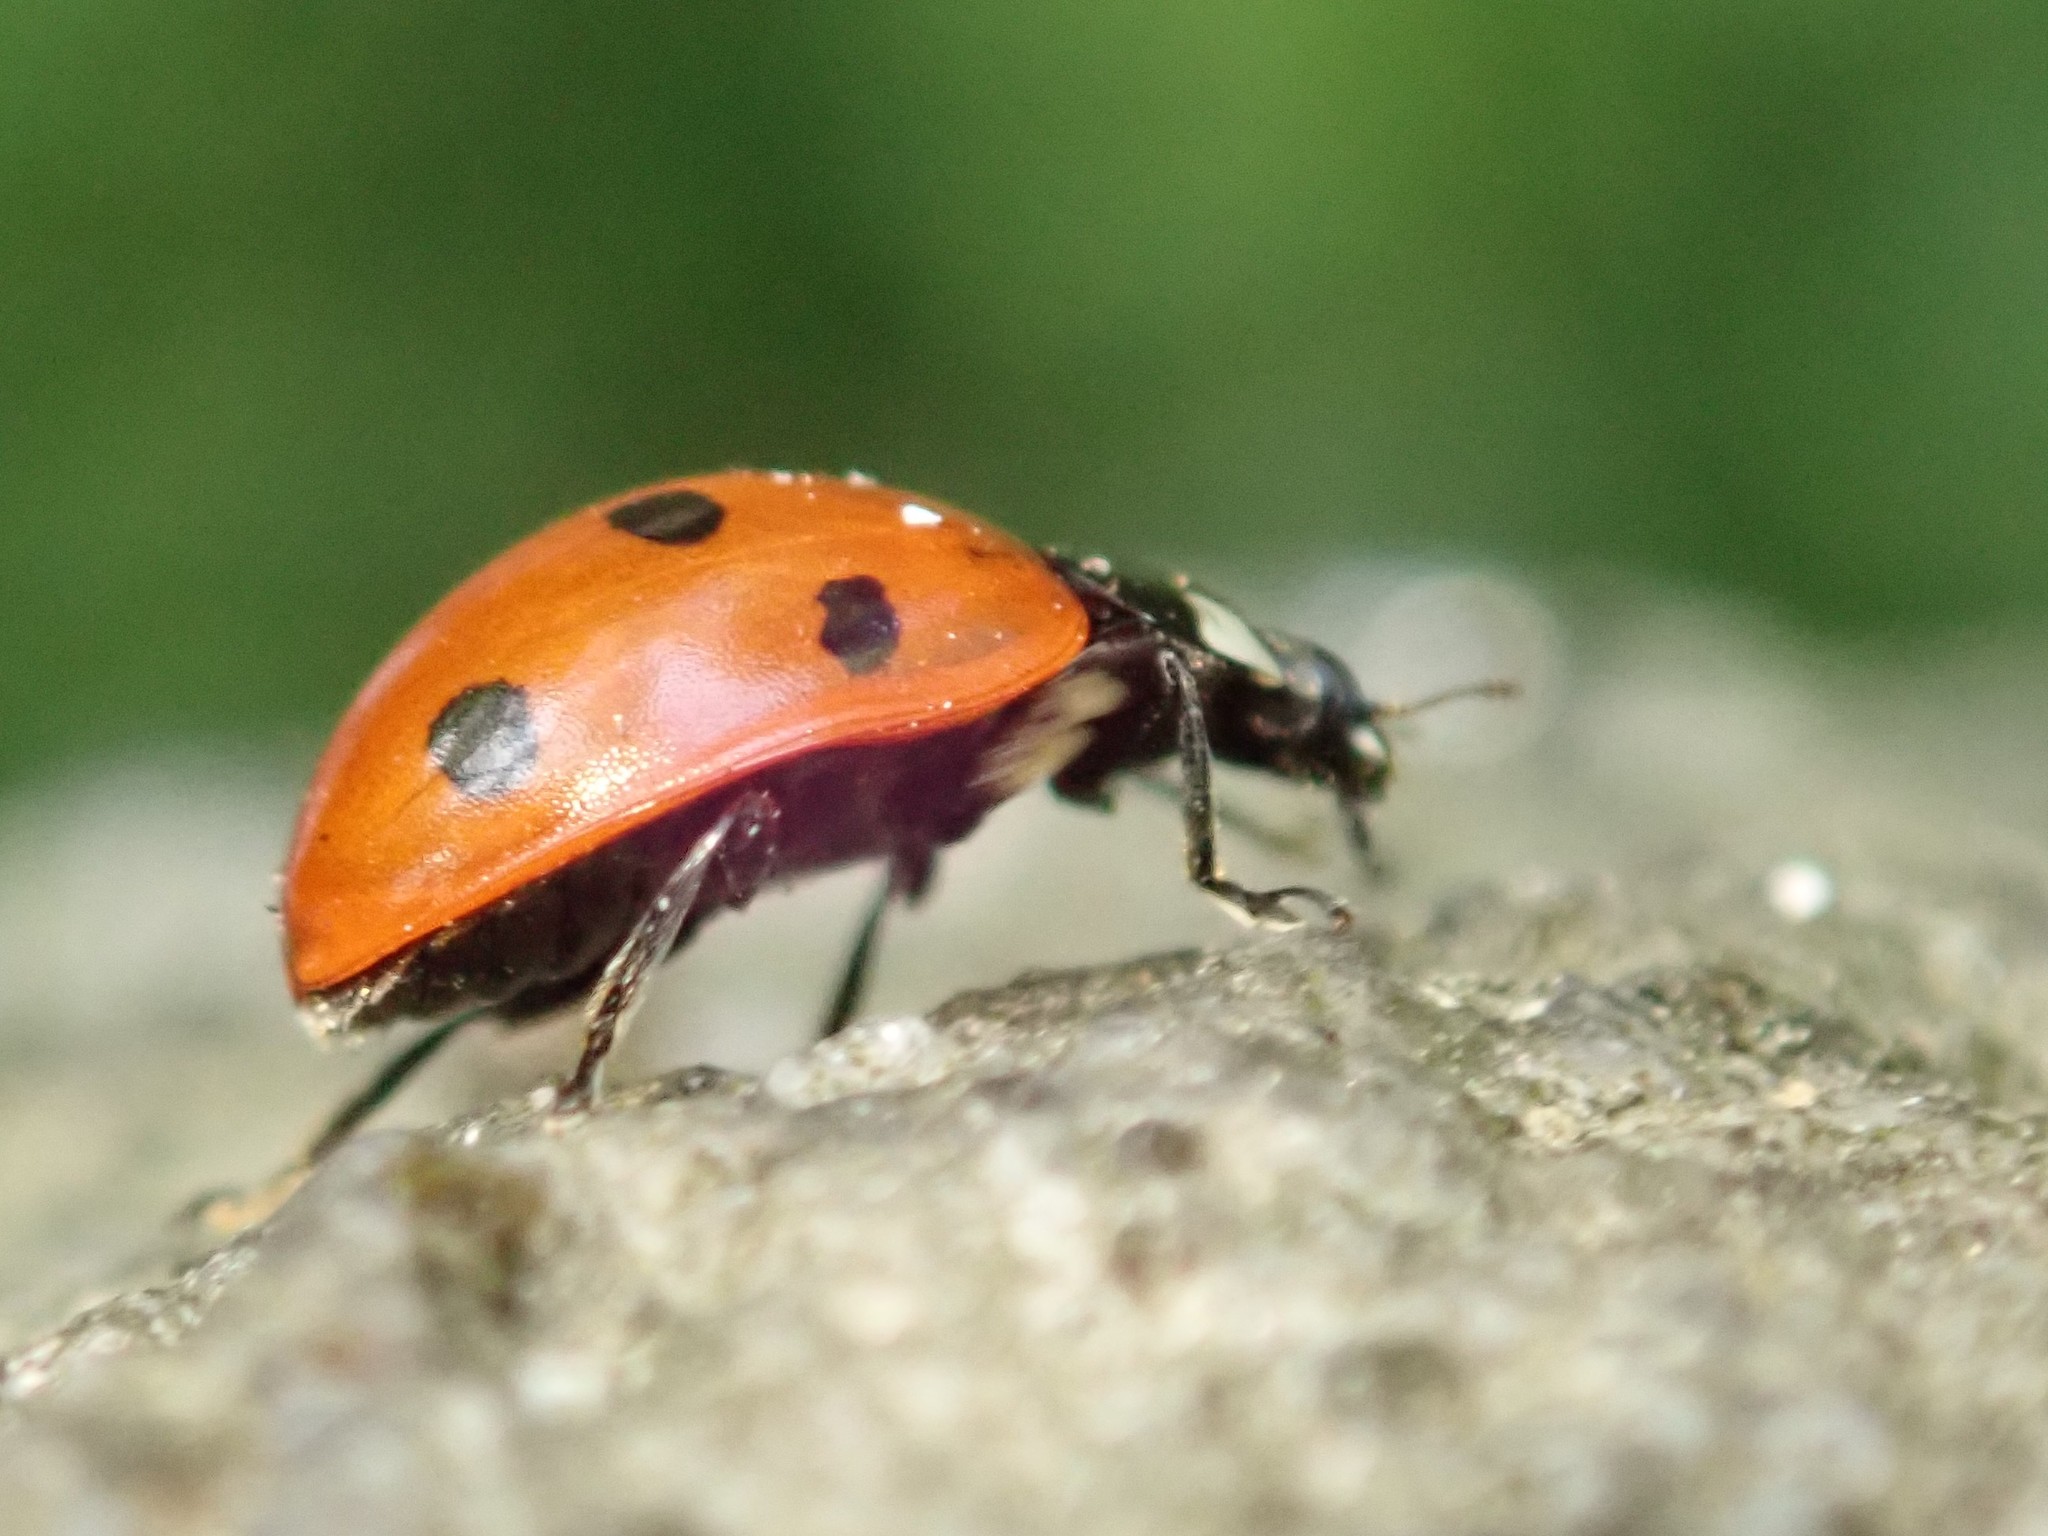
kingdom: Animalia
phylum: Arthropoda
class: Insecta
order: Coleoptera
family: Coccinellidae
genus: Coccinella
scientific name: Coccinella septempunctata
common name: Sevenspotted lady beetle
